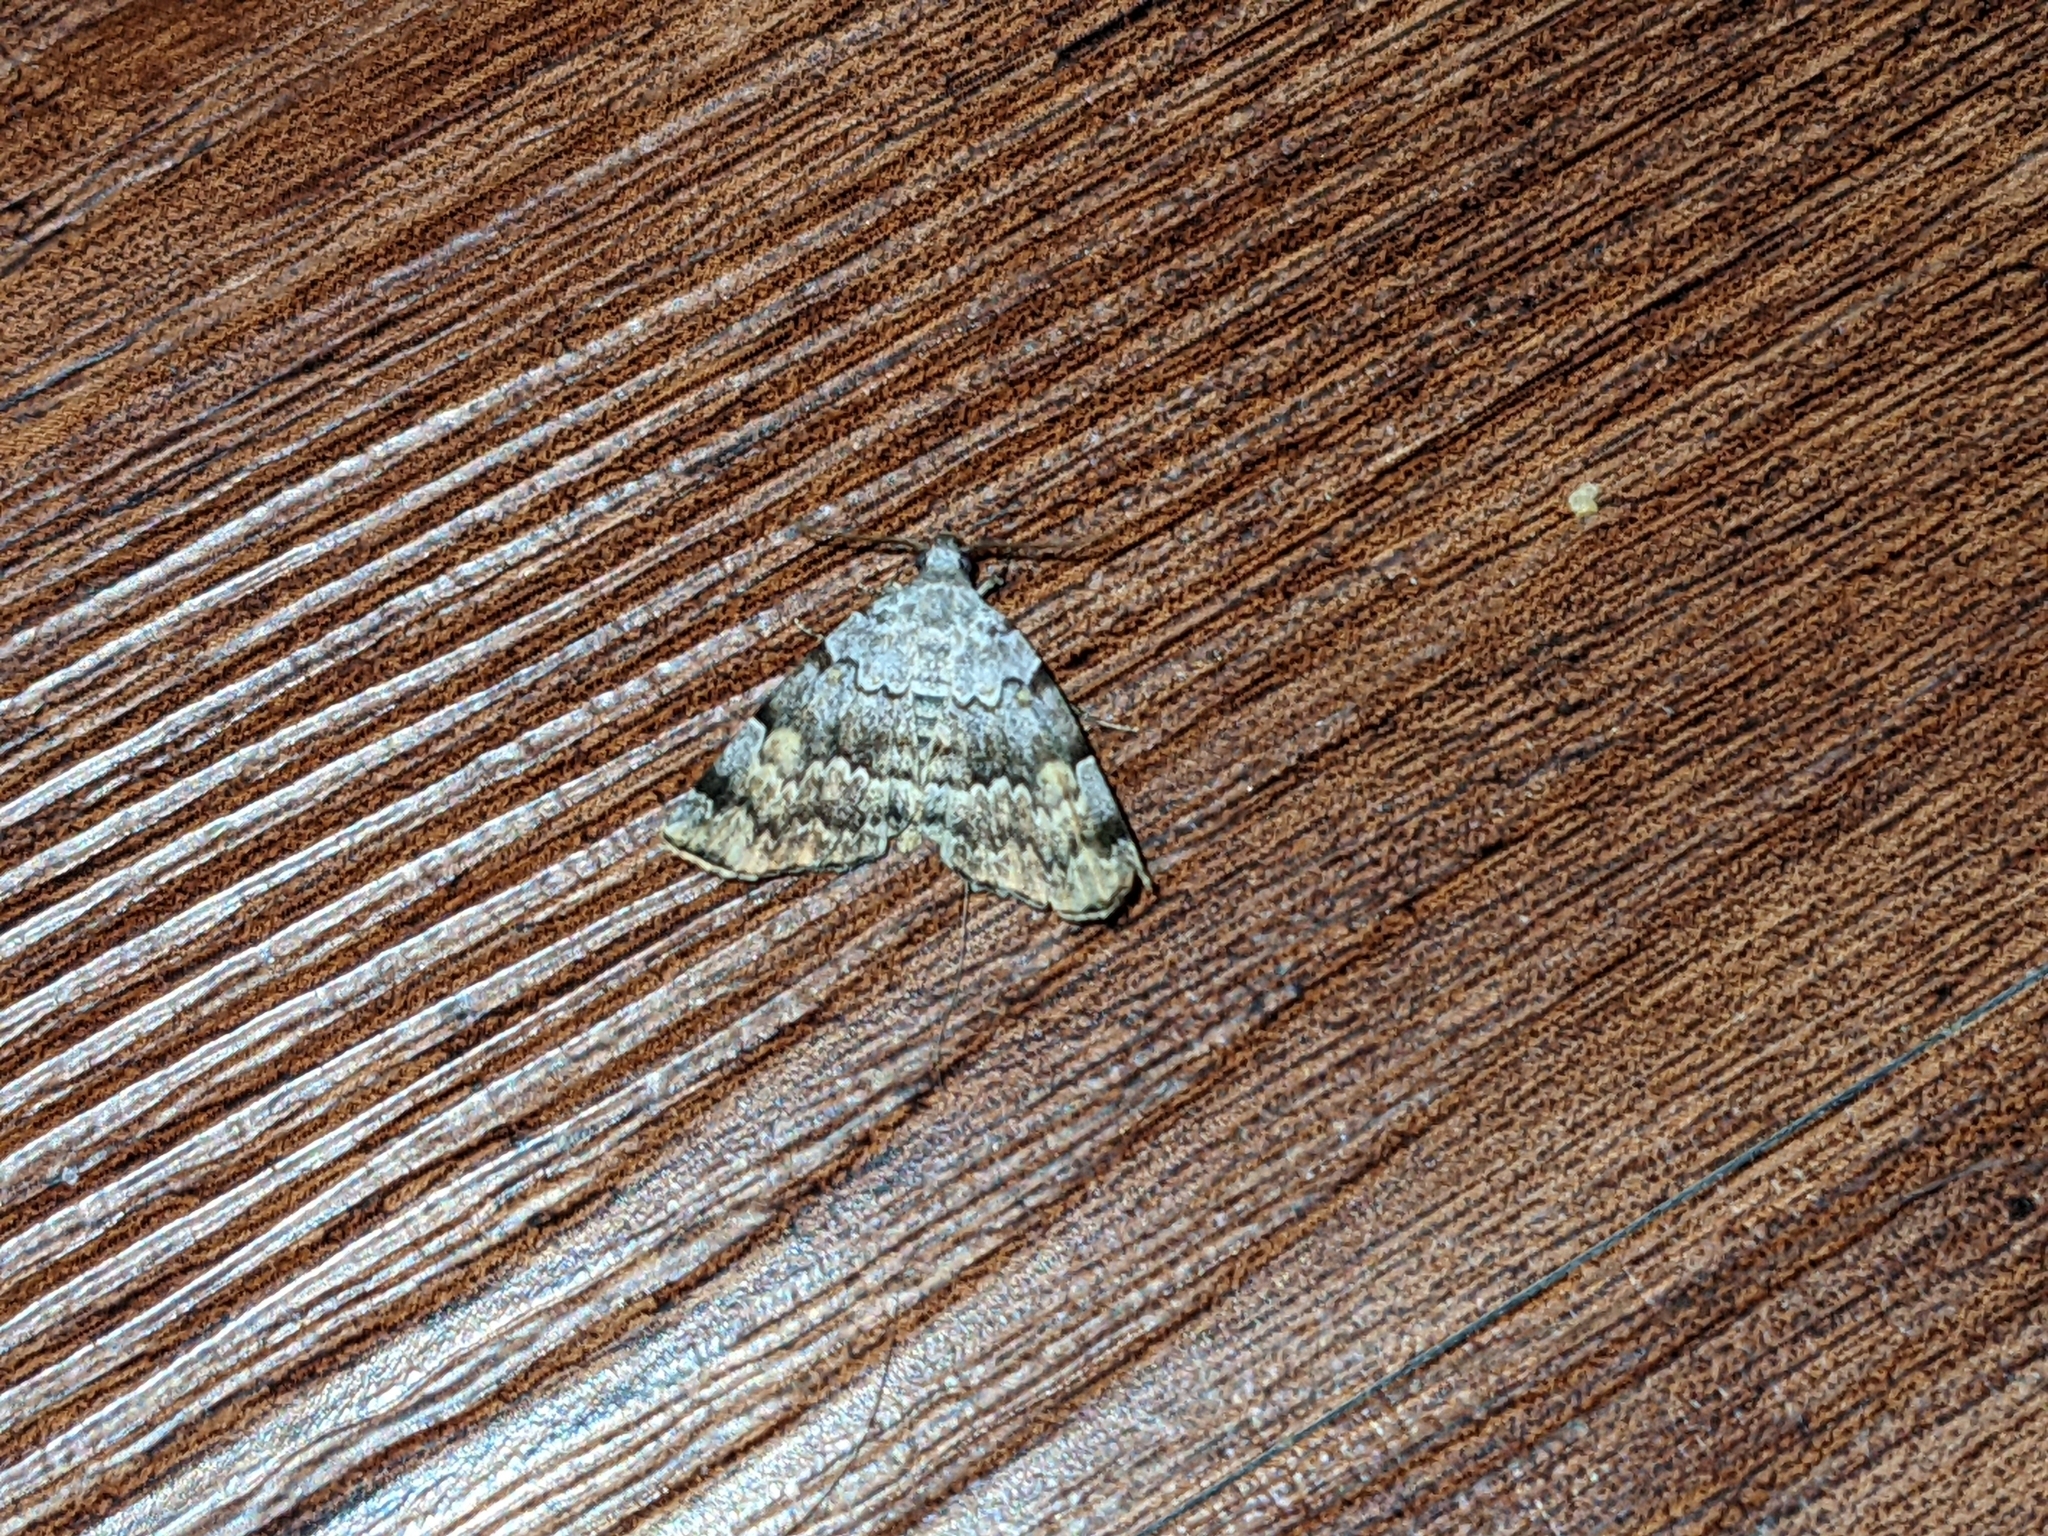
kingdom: Animalia
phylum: Arthropoda
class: Insecta
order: Lepidoptera
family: Erebidae
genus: Idia
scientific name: Idia americalis
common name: American idia moth
